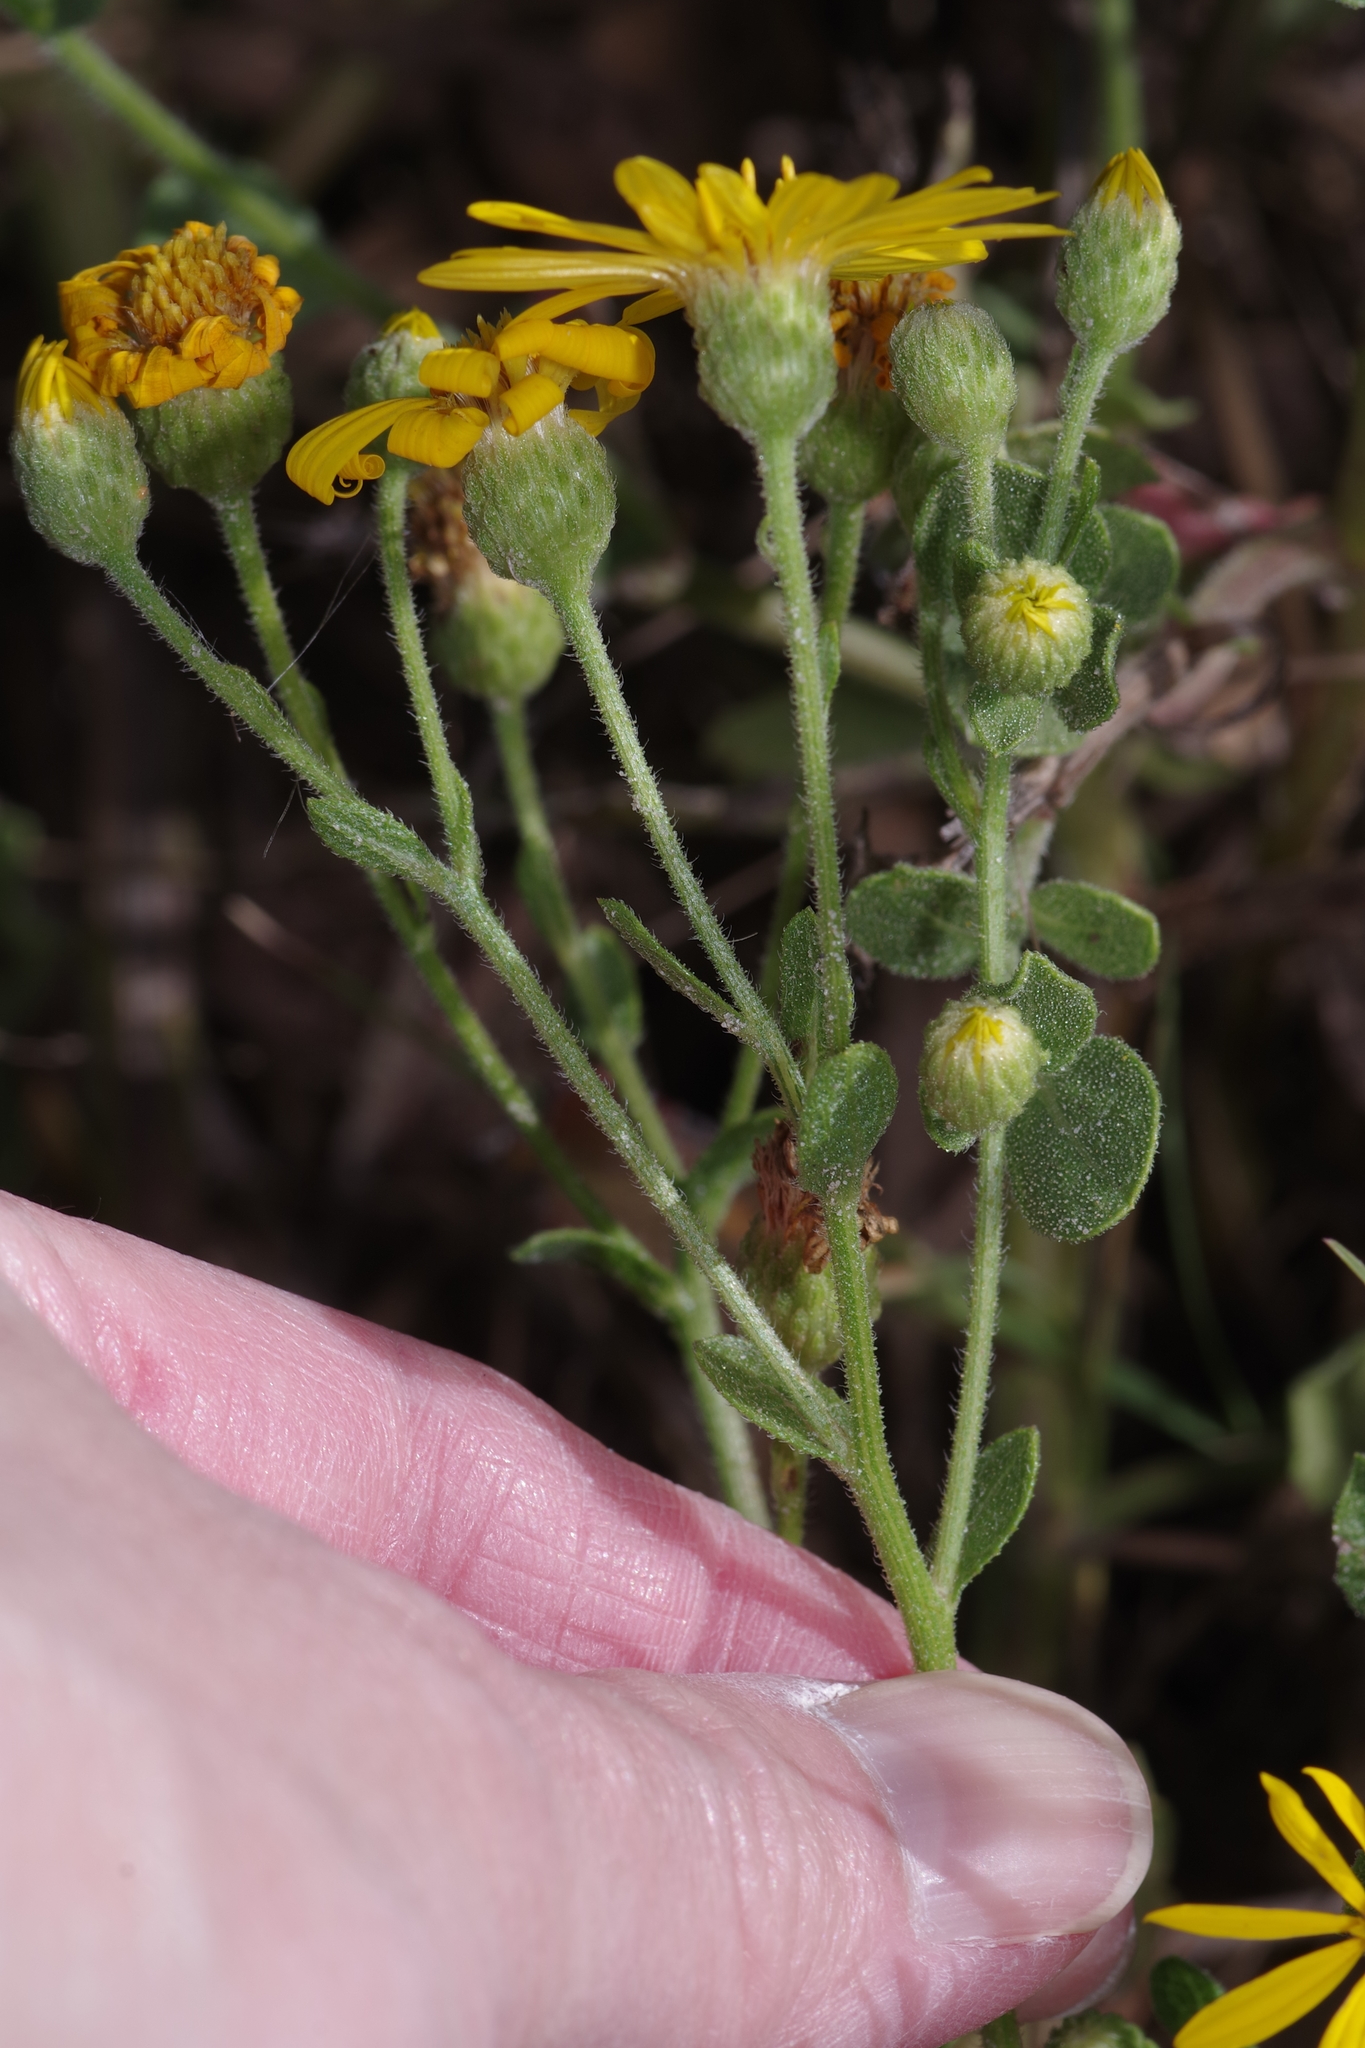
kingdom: Plantae
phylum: Tracheophyta
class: Magnoliopsida
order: Asterales
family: Asteraceae
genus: Heterotheca
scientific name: Heterotheca subaxillaris
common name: Camphorweed
